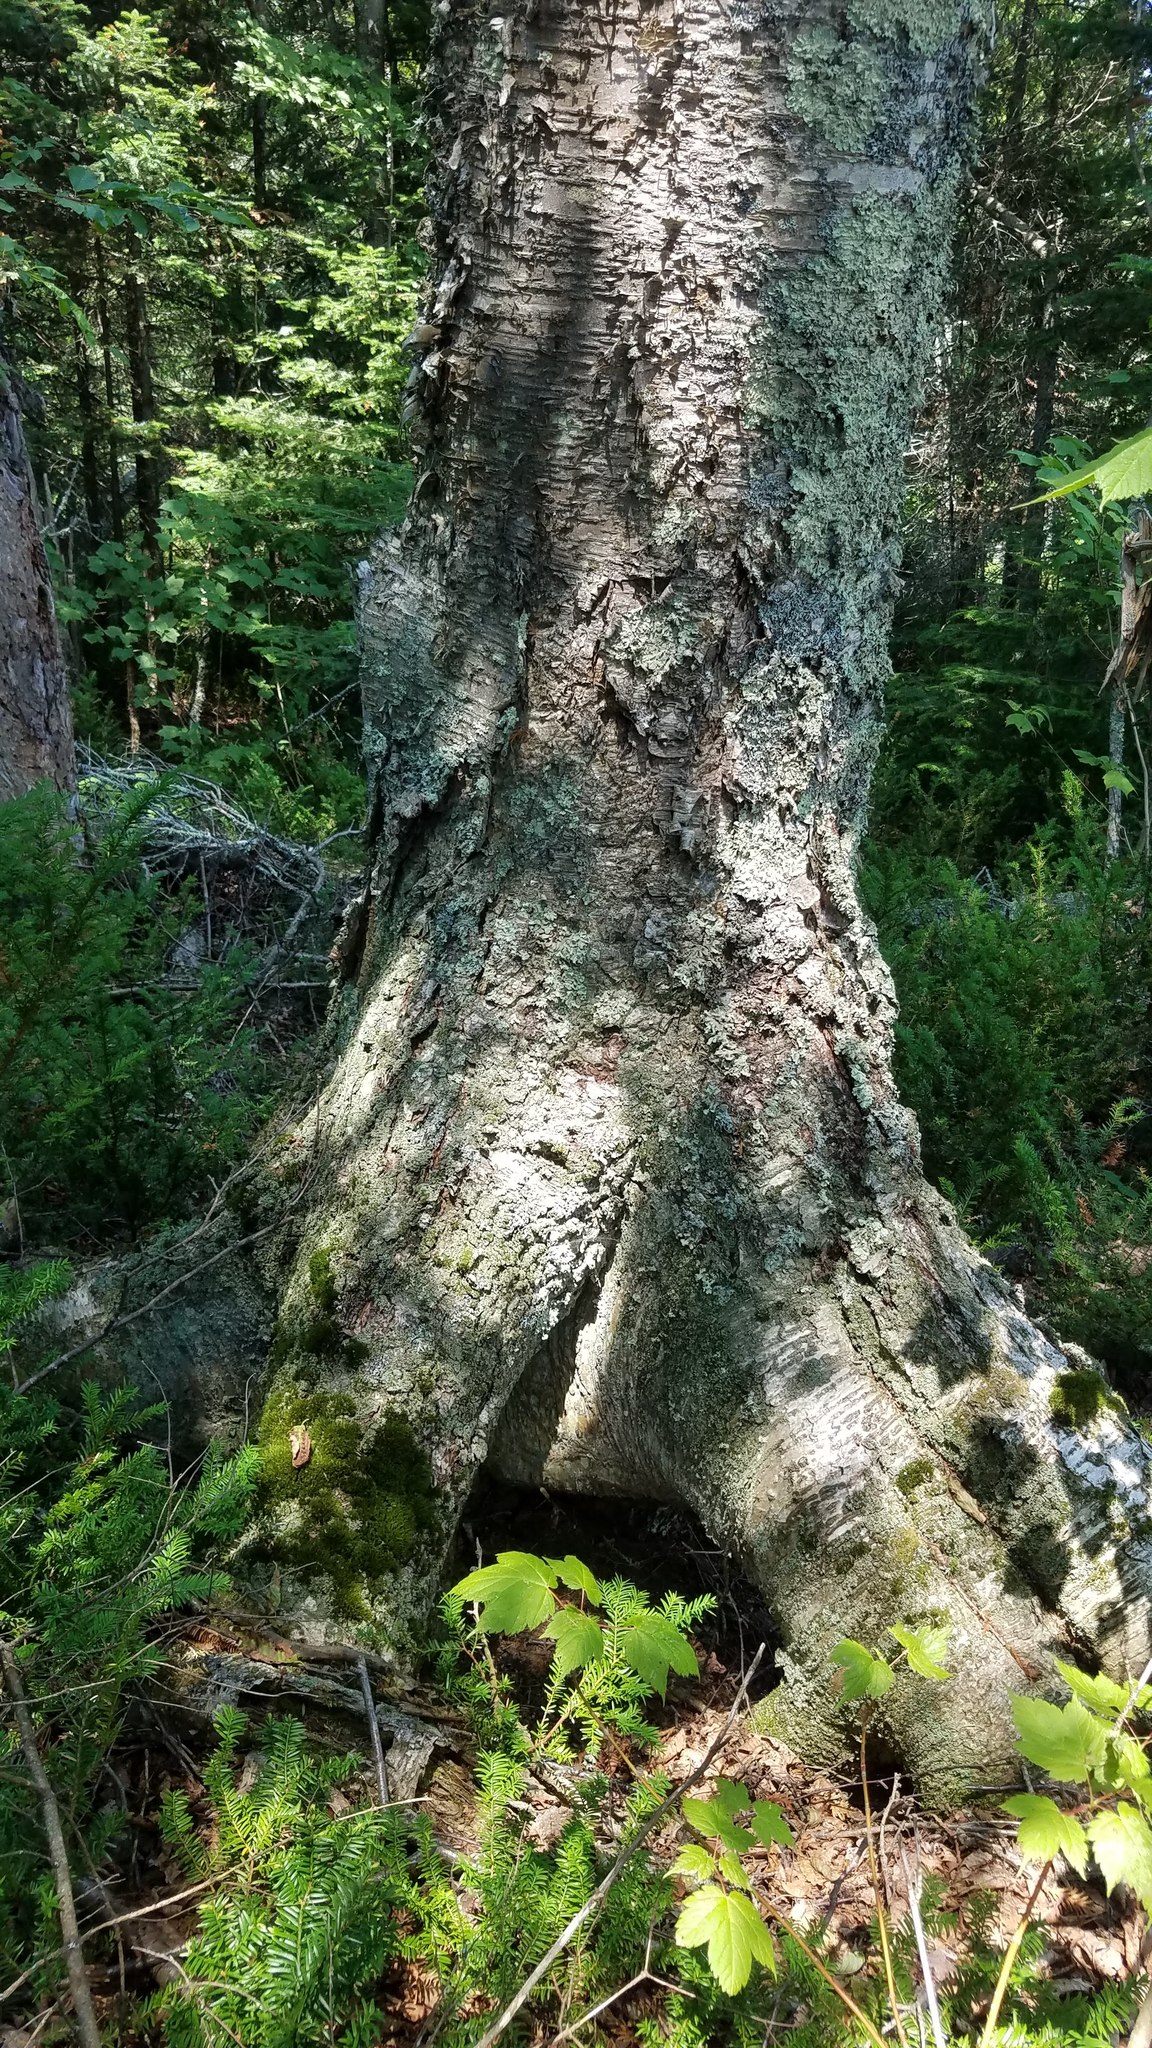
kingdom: Plantae
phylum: Tracheophyta
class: Magnoliopsida
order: Fagales
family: Betulaceae
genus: Betula
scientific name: Betula alleghaniensis
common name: Yellow birch
